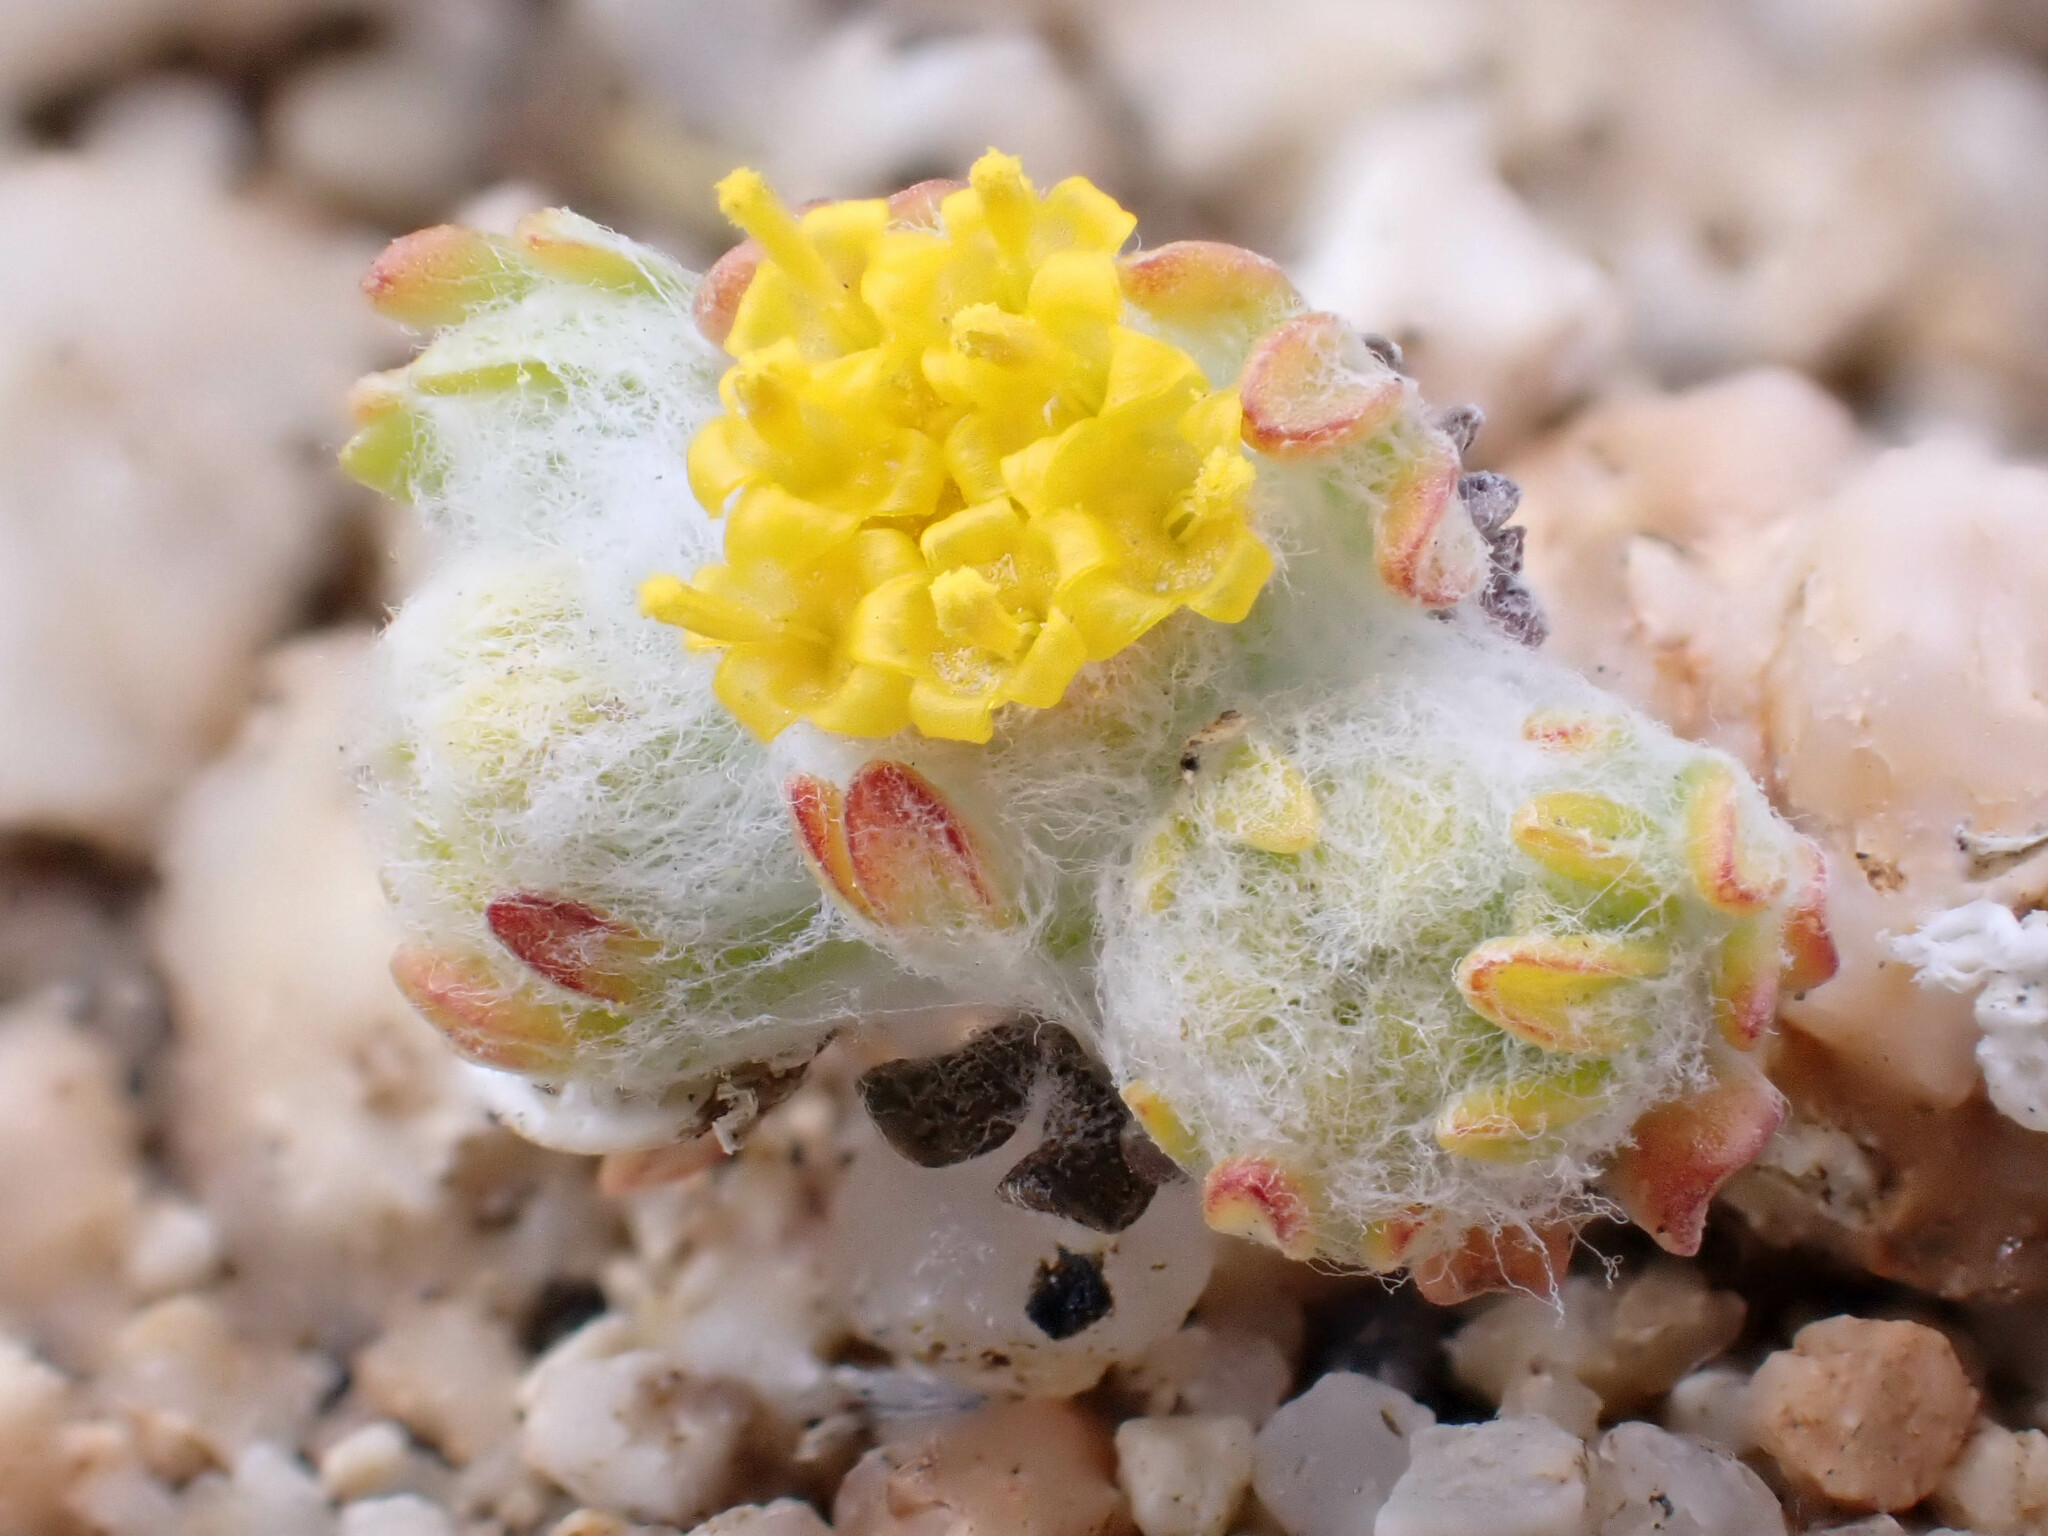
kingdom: Plantae
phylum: Tracheophyta
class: Magnoliopsida
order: Asterales
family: Asteraceae
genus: Eriophyllum
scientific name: Eriophyllum pringlei
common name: Pringle's woolly-sunflower
